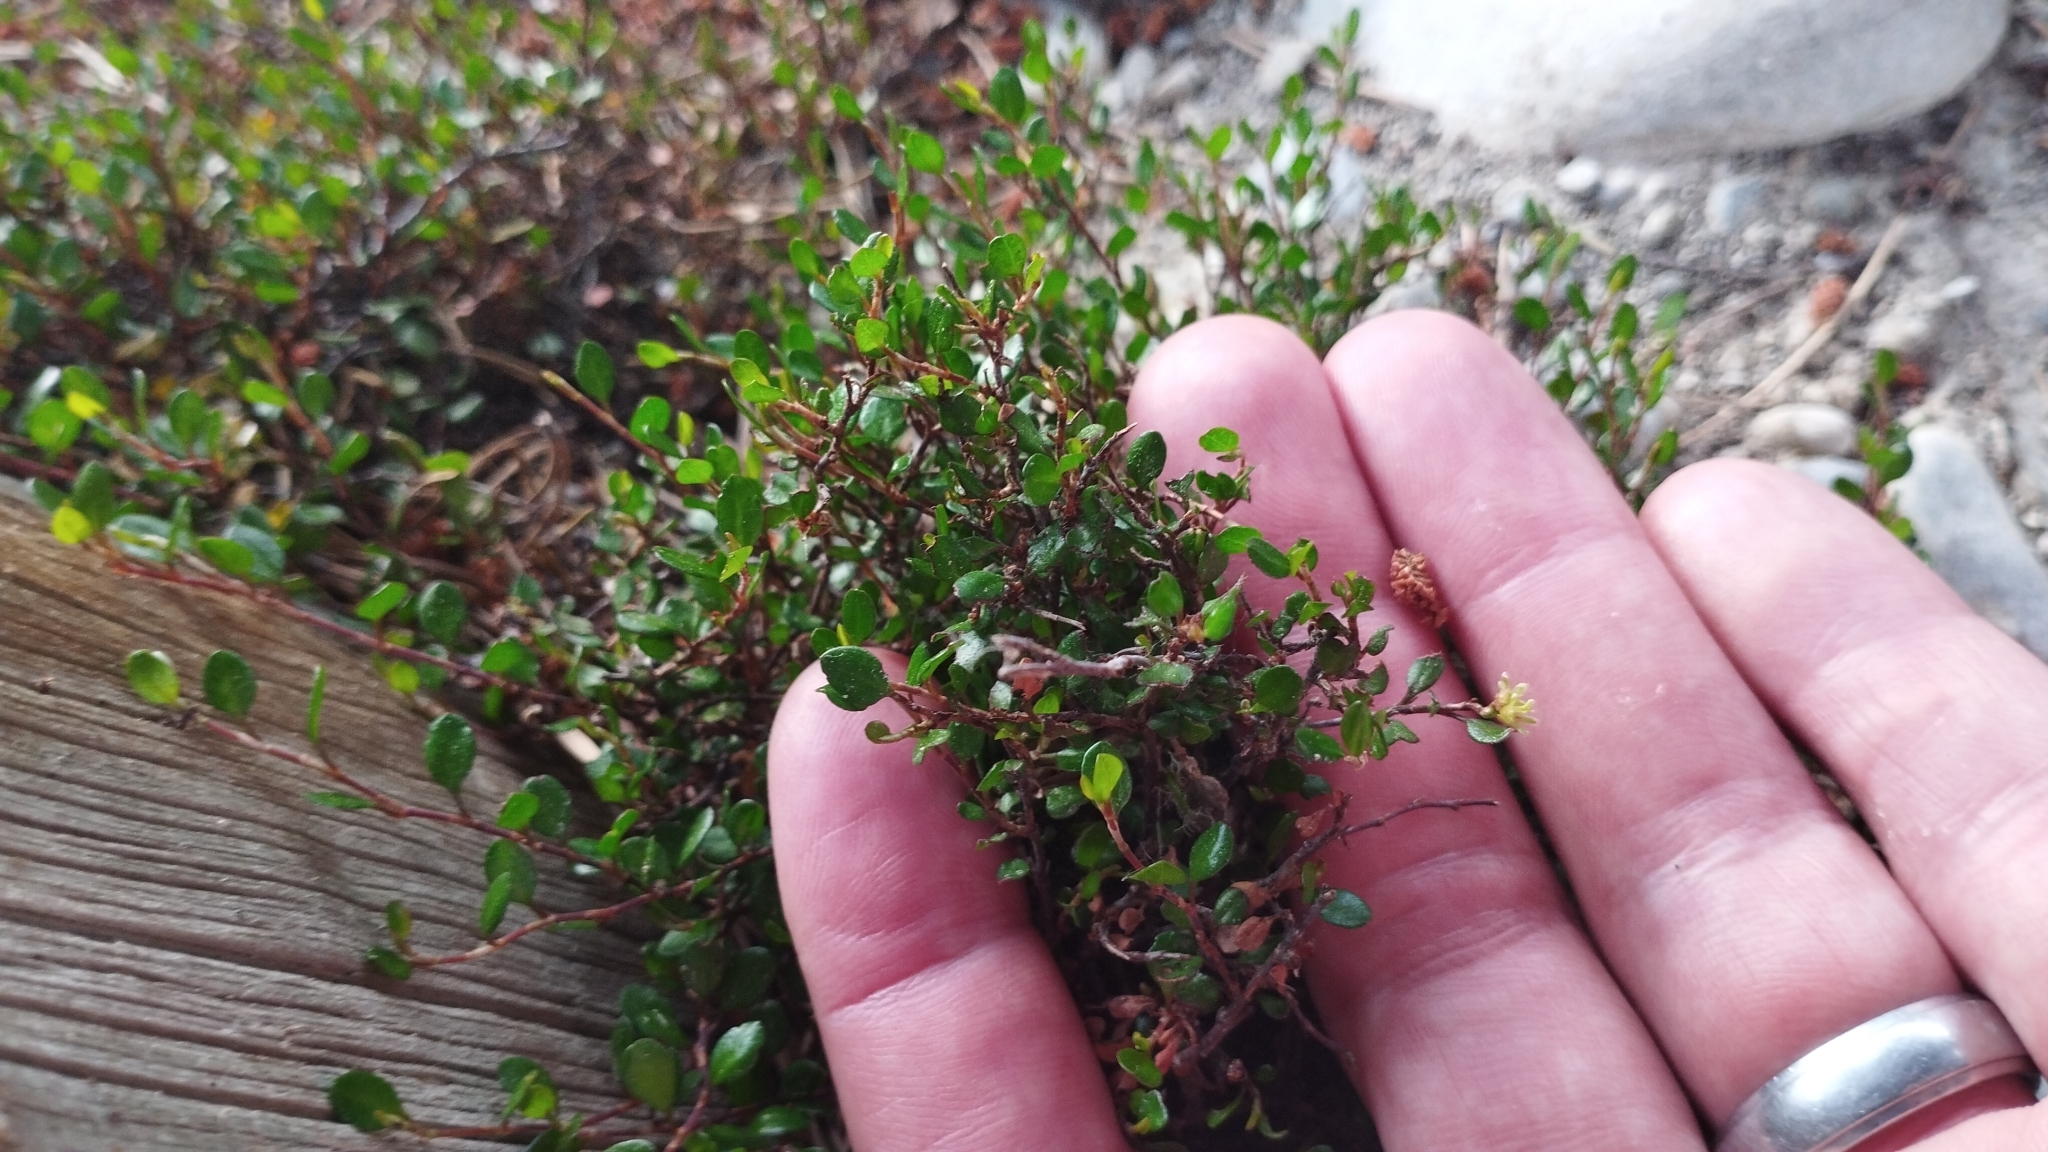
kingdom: Plantae
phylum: Tracheophyta
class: Magnoliopsida
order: Caryophyllales
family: Polygonaceae
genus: Muehlenbeckia
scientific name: Muehlenbeckia axillaris
